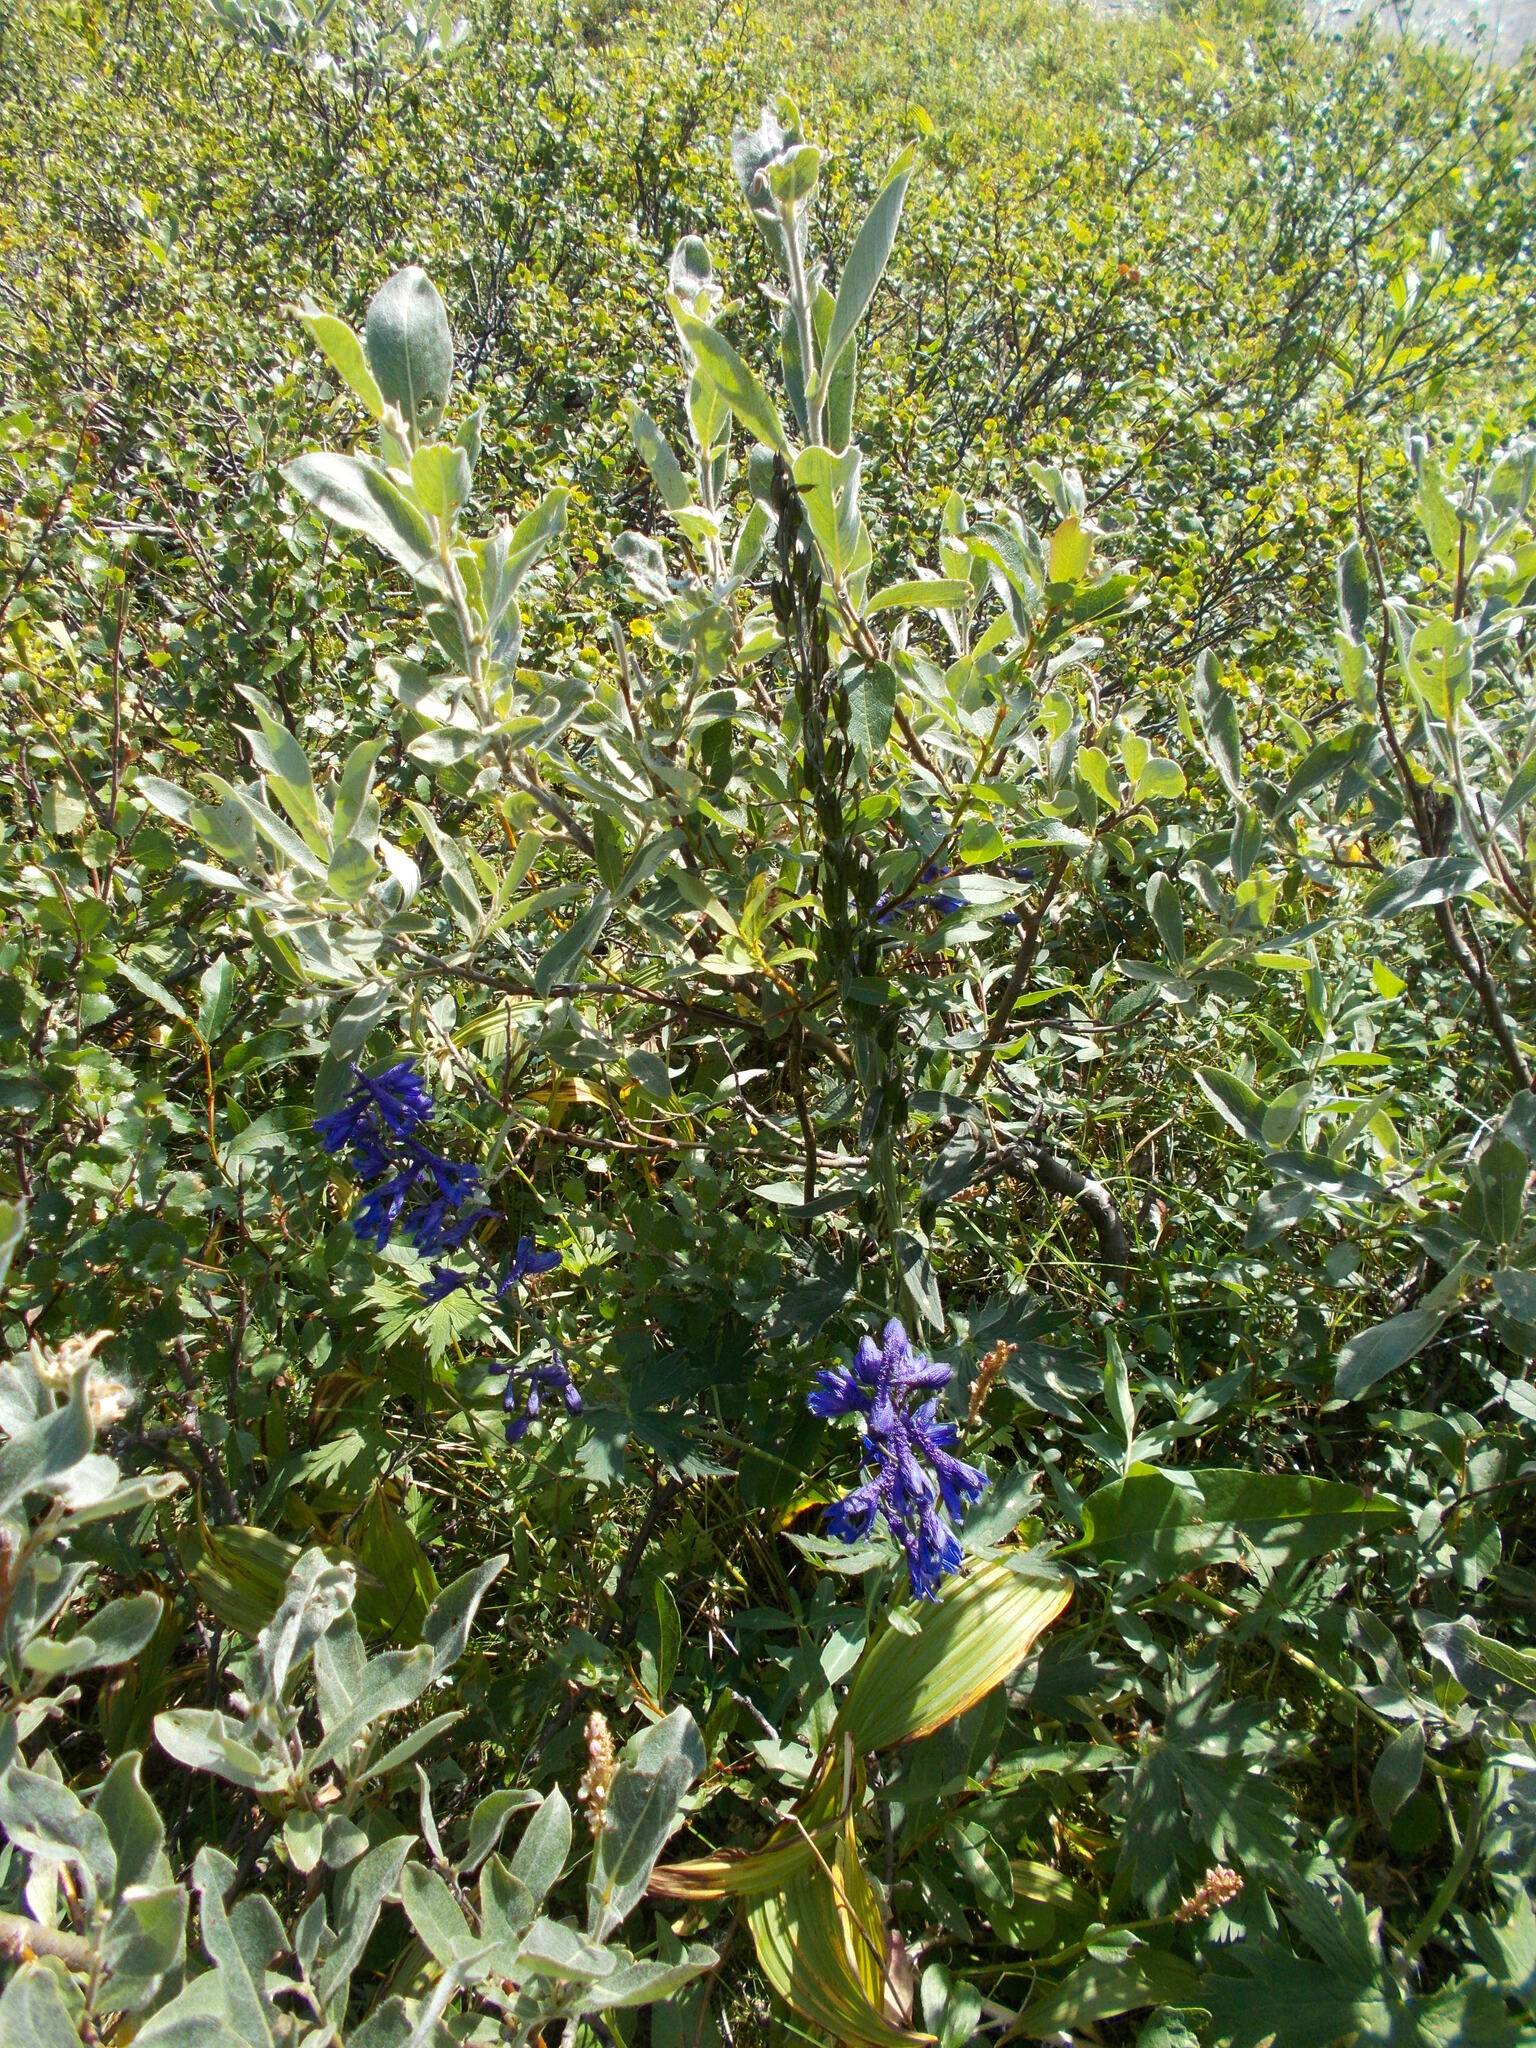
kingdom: Plantae
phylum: Tracheophyta
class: Magnoliopsida
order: Ranunculales
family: Ranunculaceae
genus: Delphinium
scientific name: Delphinium elatum
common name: Candle larkspur
